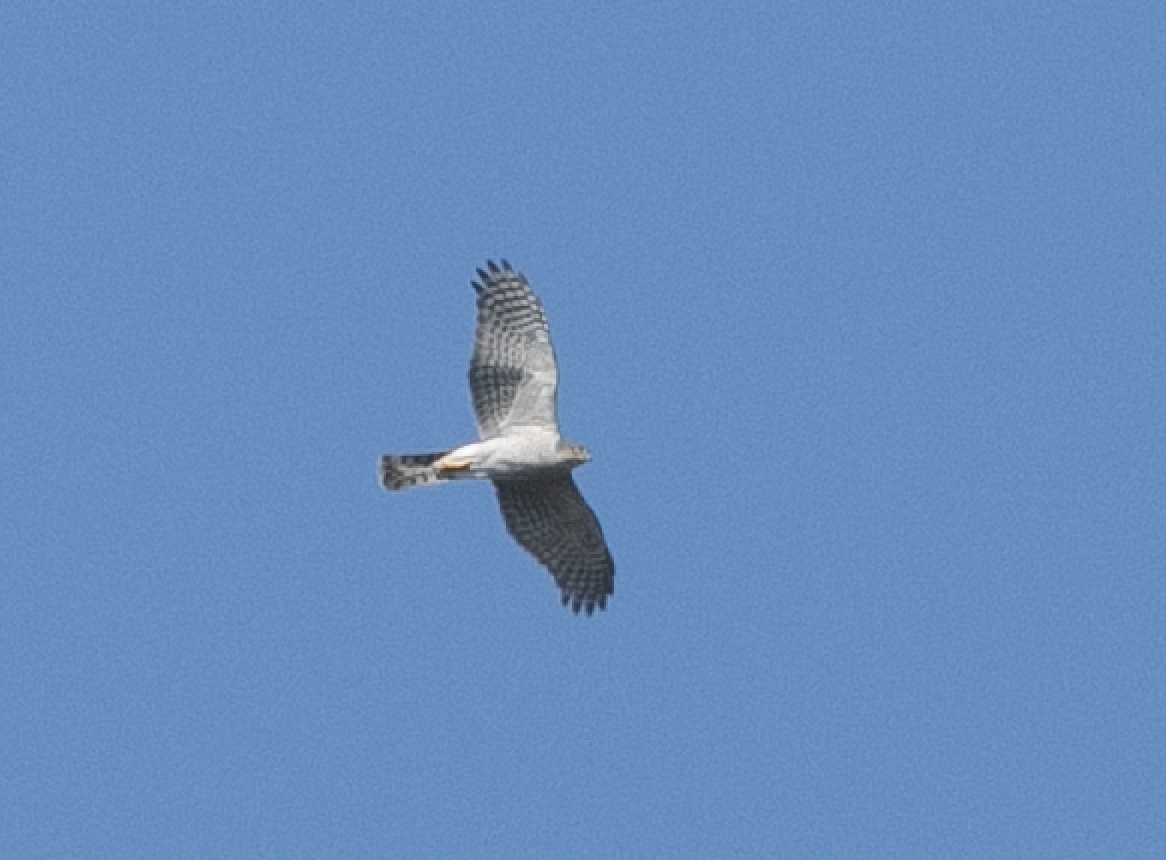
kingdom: Animalia
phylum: Chordata
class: Aves
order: Accipitriformes
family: Accipitridae
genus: Accipiter
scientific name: Accipiter nisus
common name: Eurasian sparrowhawk
